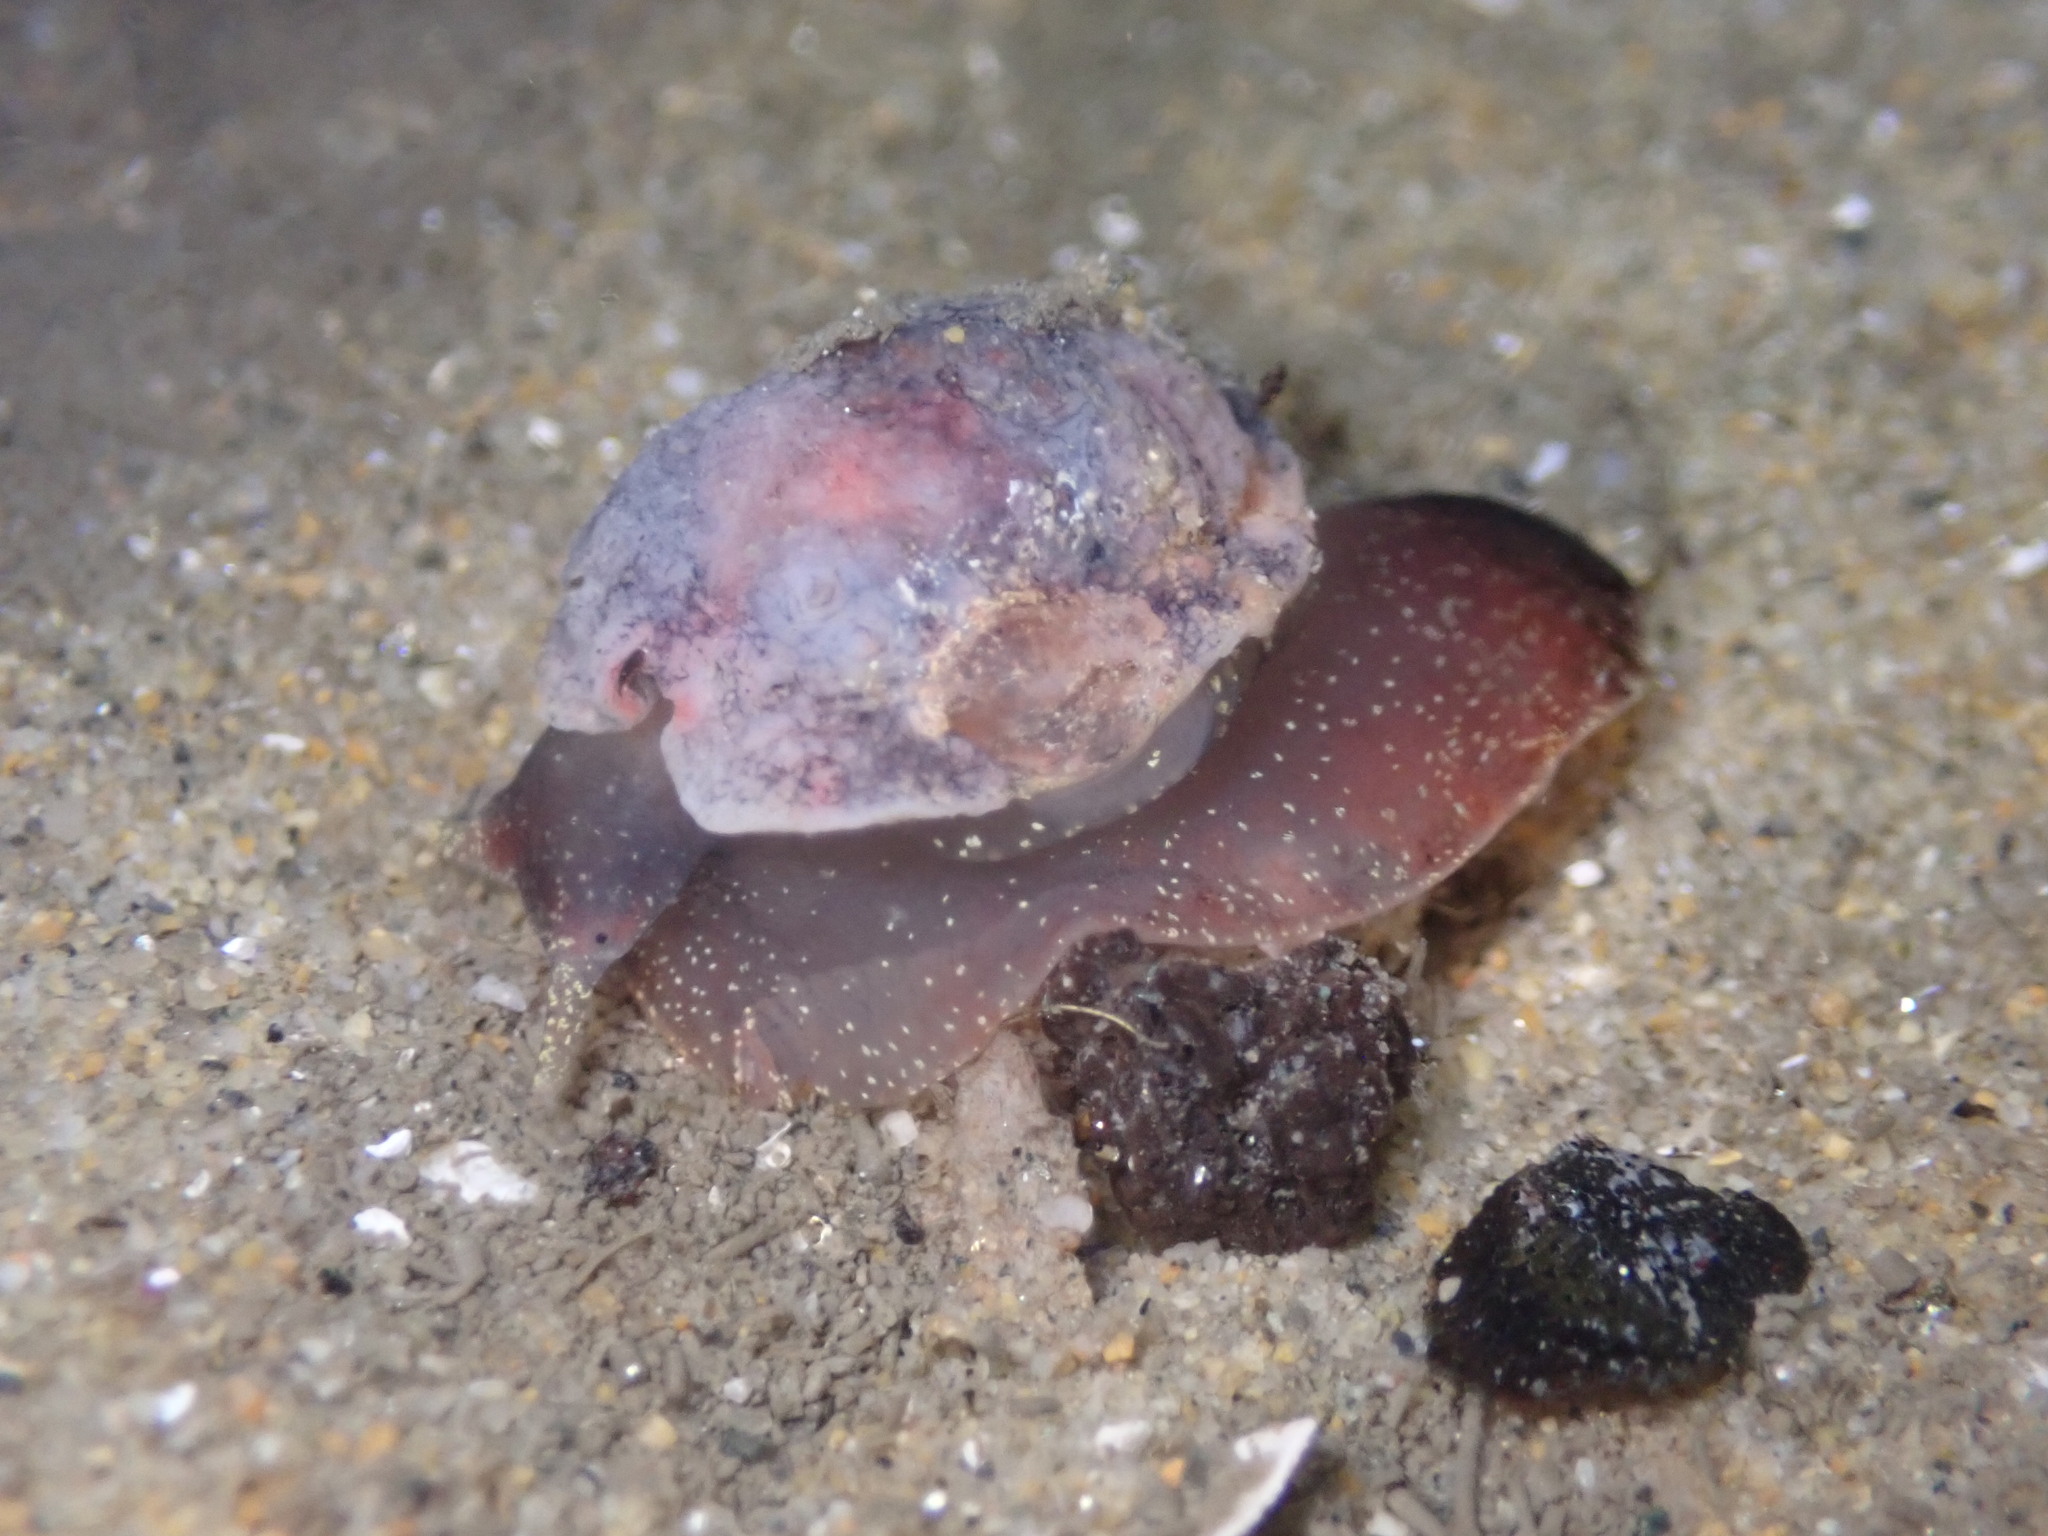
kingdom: Animalia
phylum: Mollusca
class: Gastropoda
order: Littorinimorpha
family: Velutinidae
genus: Lamellaria
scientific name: Lamellaria diegoensis
